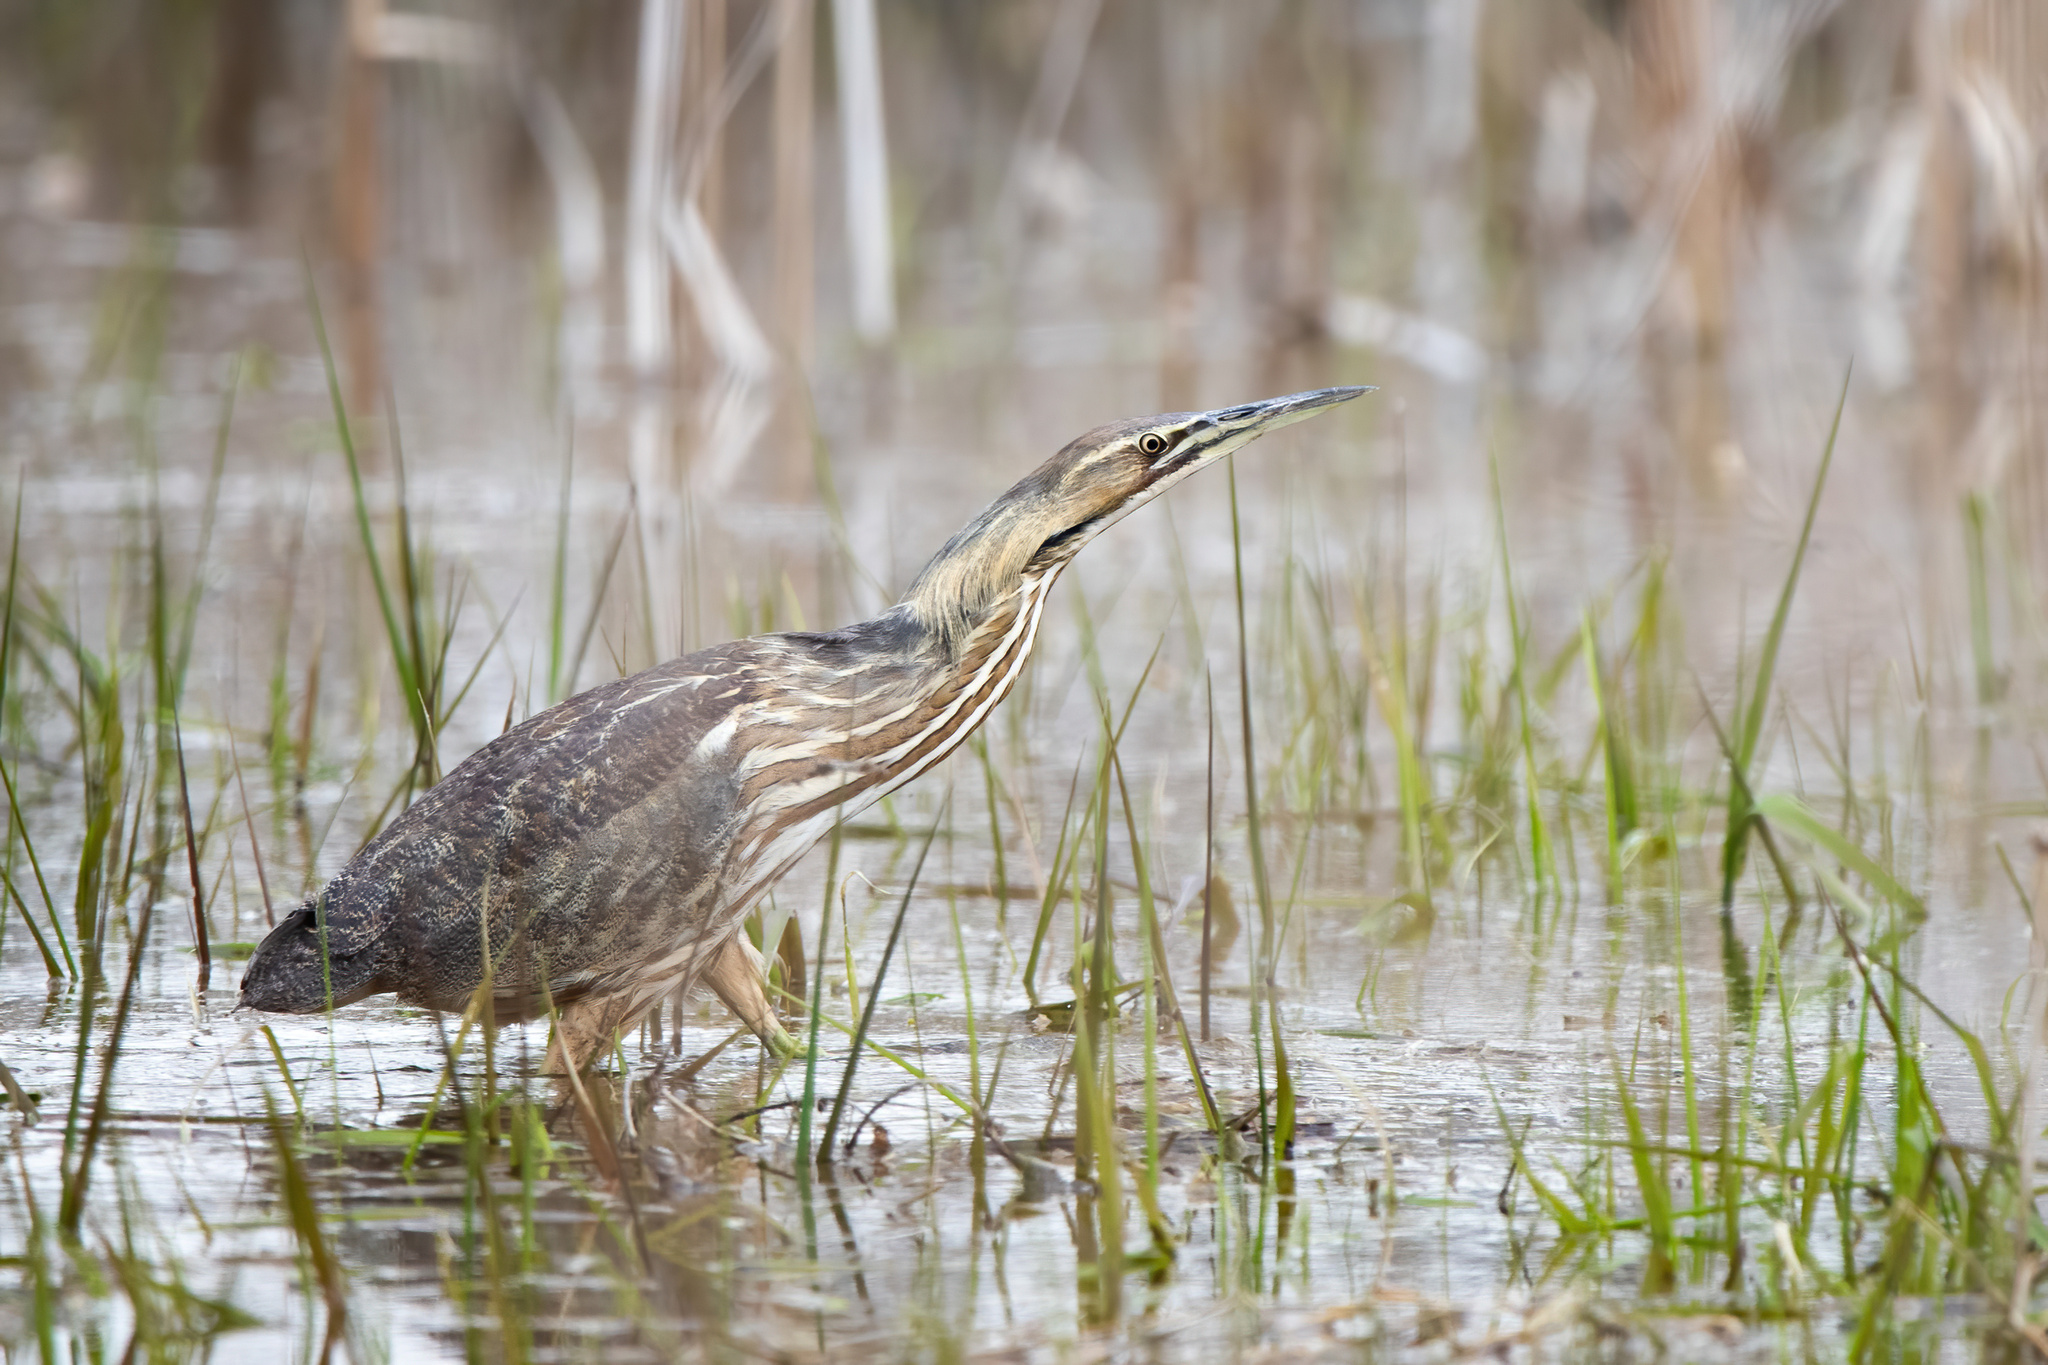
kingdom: Animalia
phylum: Chordata
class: Aves
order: Pelecaniformes
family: Ardeidae
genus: Botaurus
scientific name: Botaurus lentiginosus
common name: American bittern
